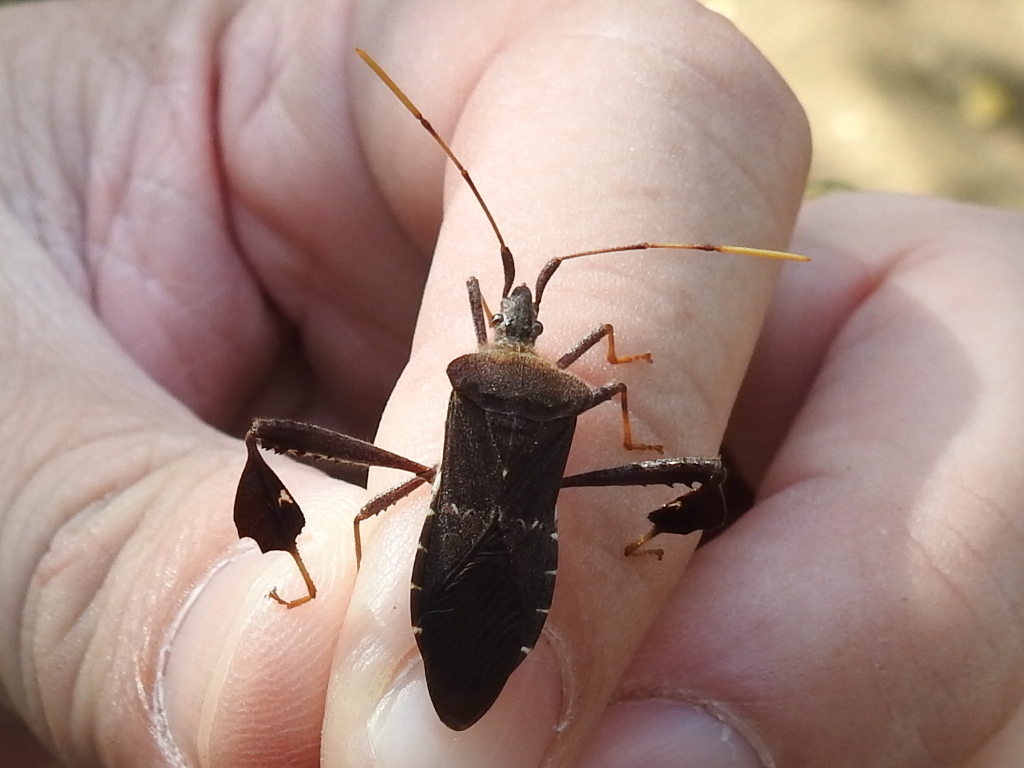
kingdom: Animalia
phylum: Arthropoda
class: Insecta
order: Hemiptera
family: Coreidae
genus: Leptoglossus
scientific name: Leptoglossus oppositus
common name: Northern leaf-footed bug
